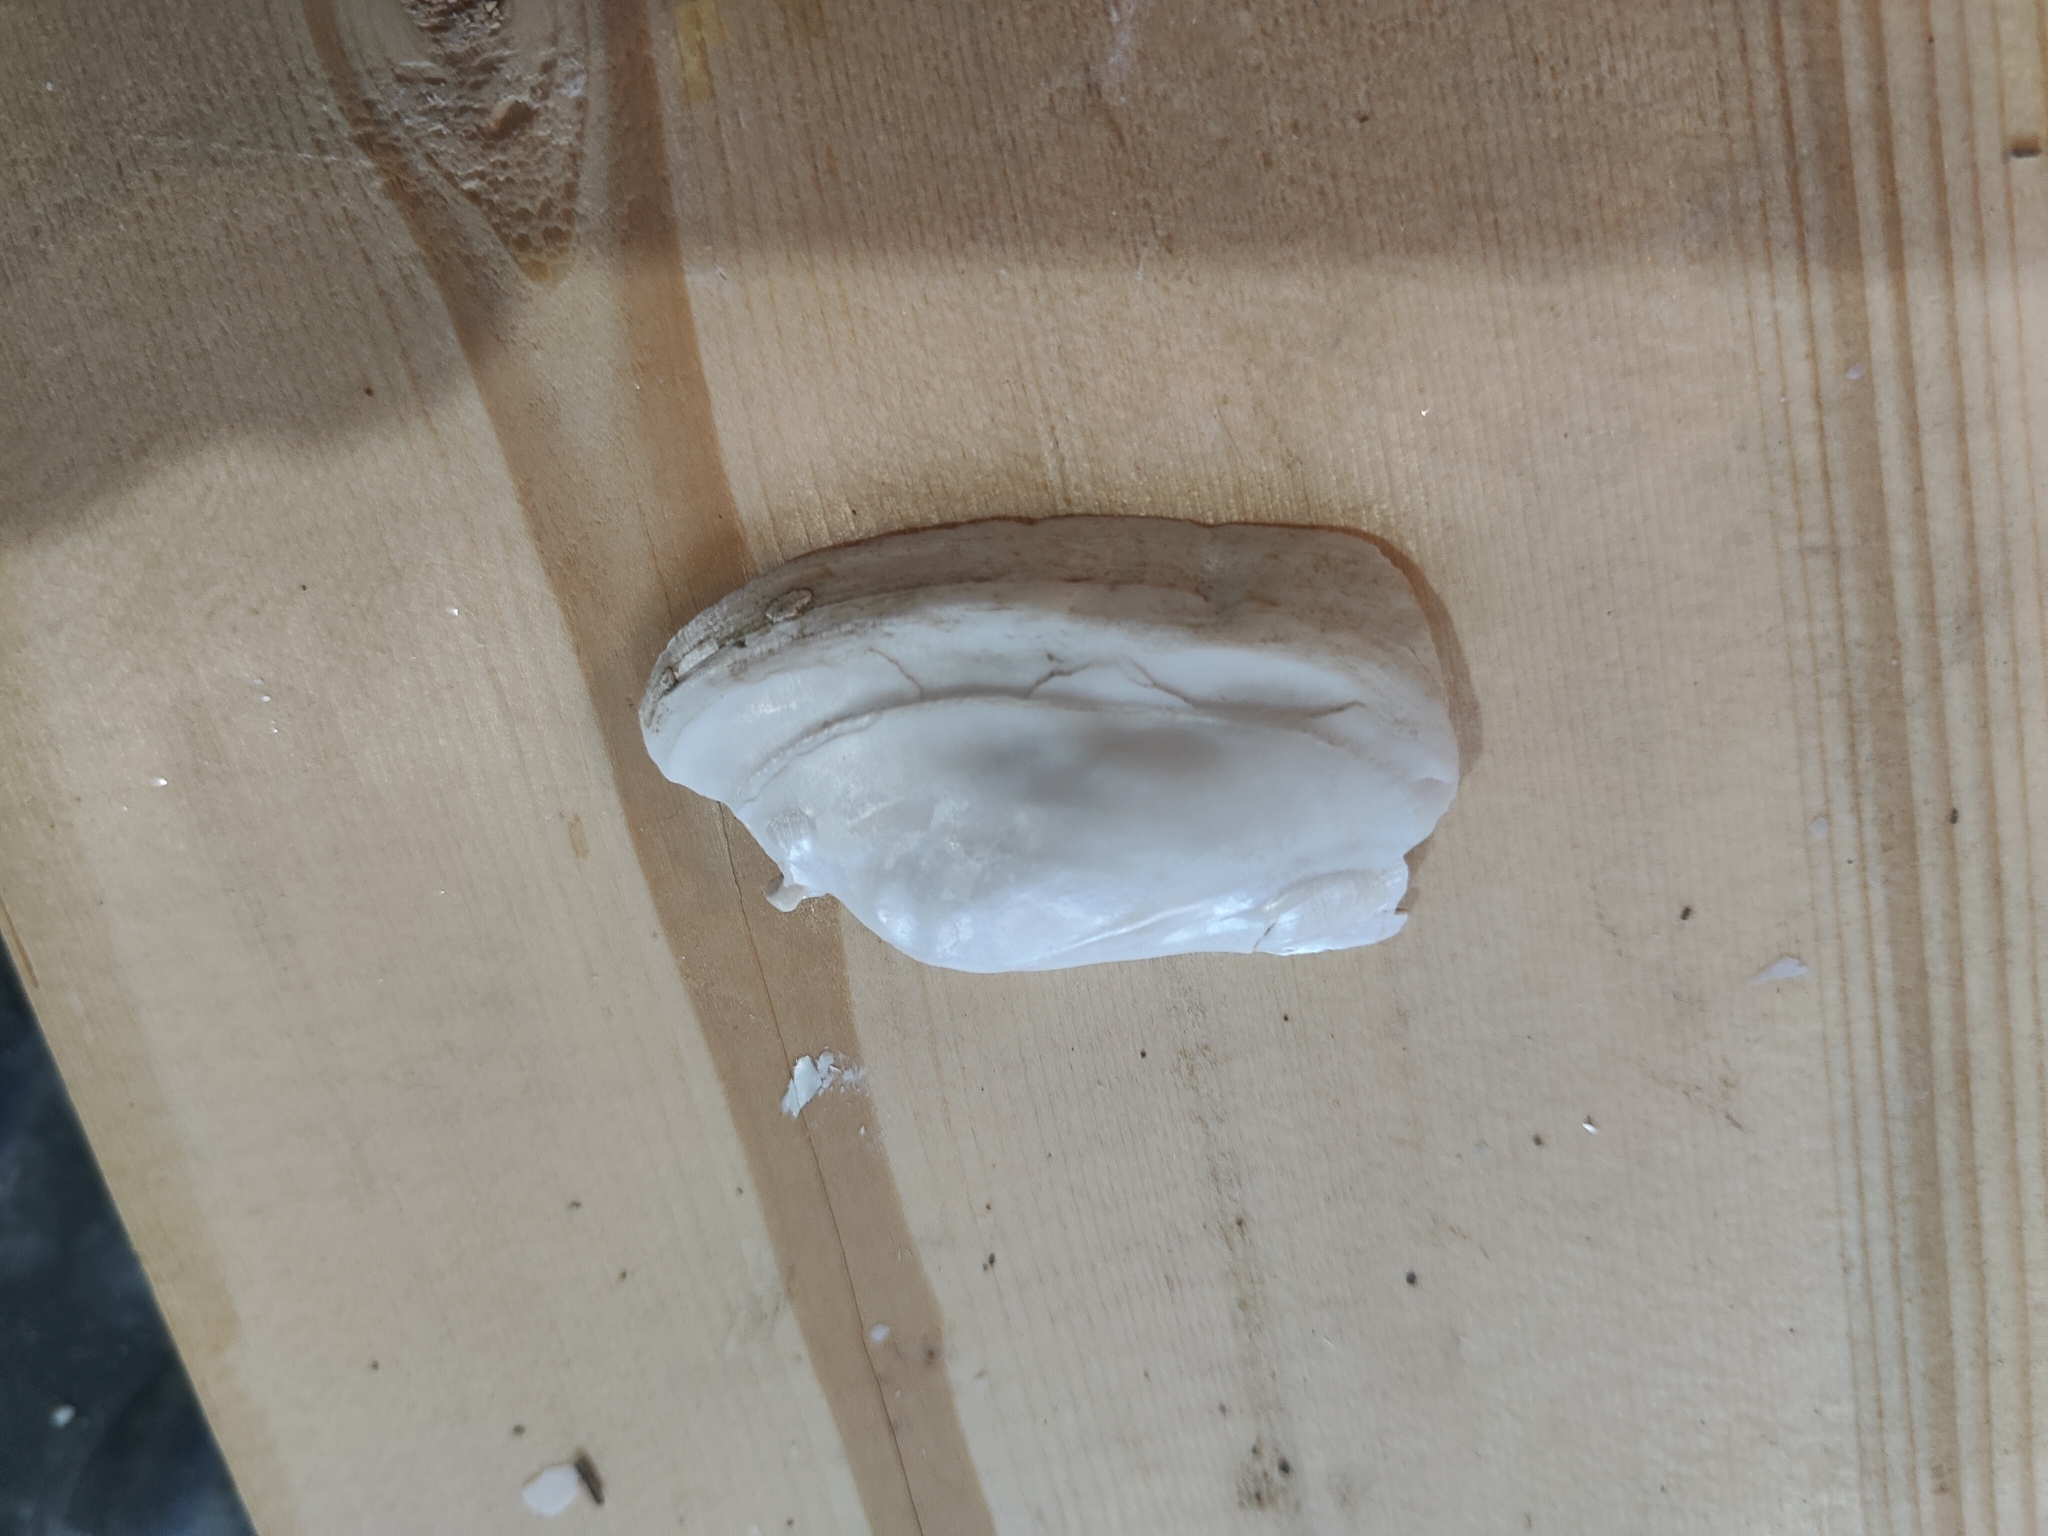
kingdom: Animalia
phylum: Mollusca
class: Bivalvia
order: Unionida
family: Unionidae
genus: Ligumia
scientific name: Ligumia recta
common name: Black sandshell
